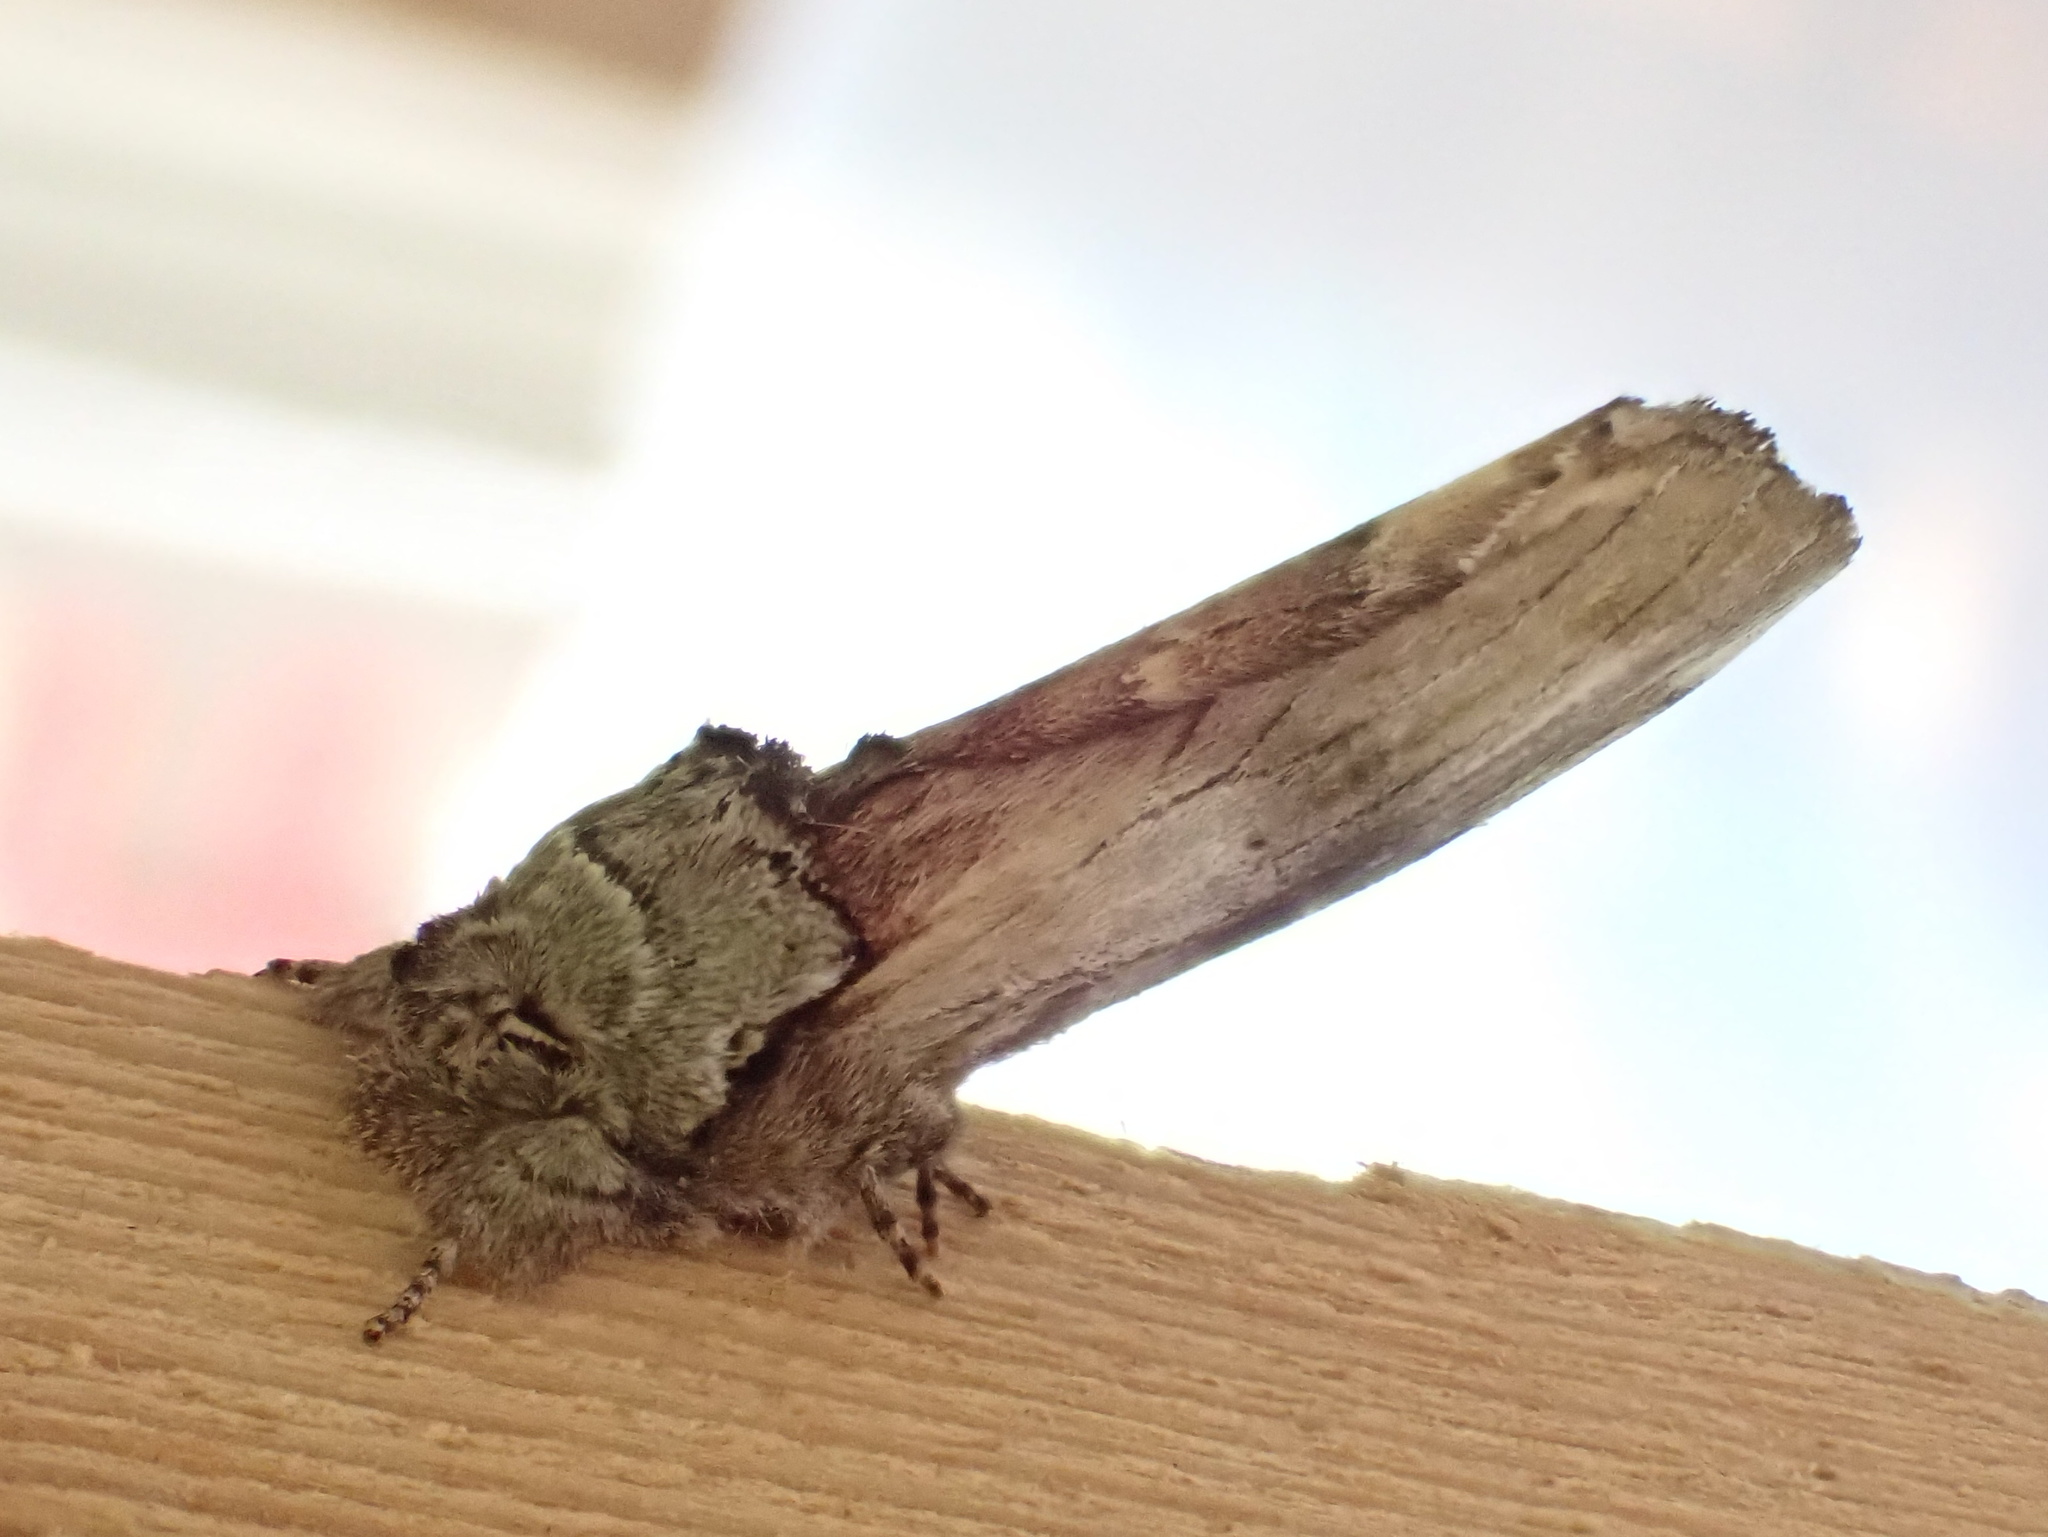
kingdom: Animalia
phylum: Arthropoda
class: Insecta
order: Lepidoptera
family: Notodontidae
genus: Schizura
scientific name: Schizura
